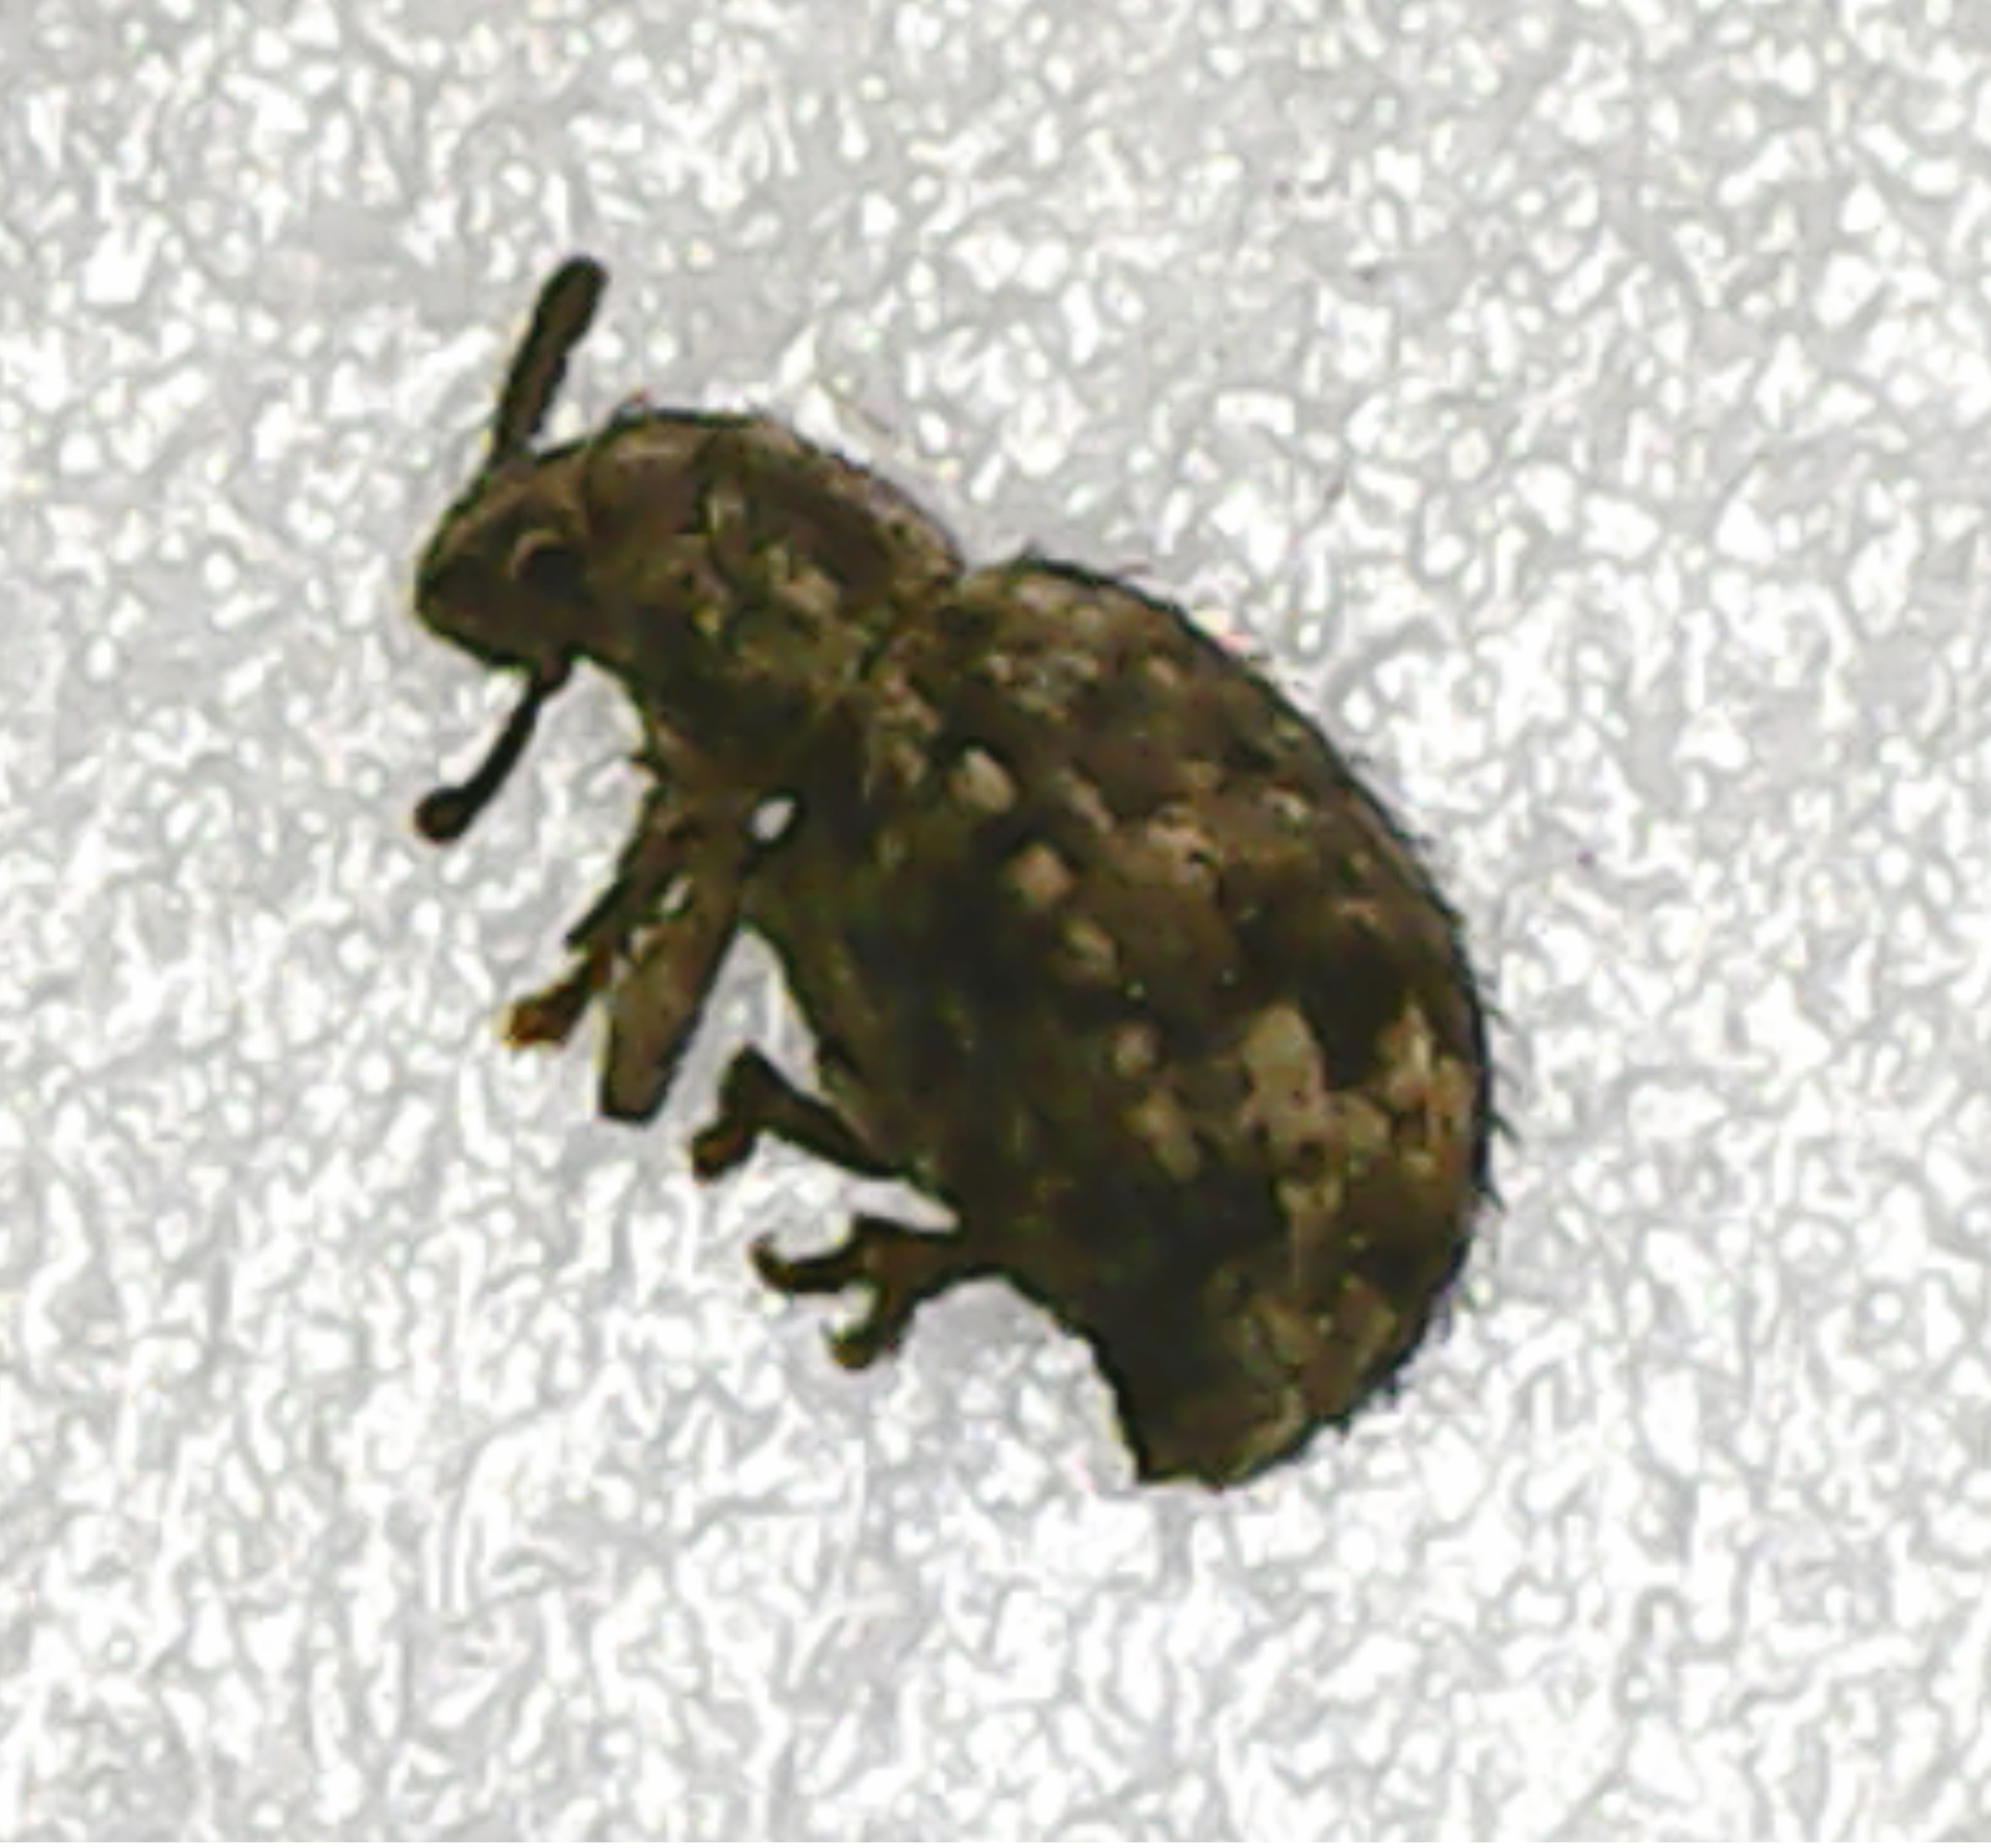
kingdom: Animalia
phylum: Arthropoda
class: Insecta
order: Coleoptera
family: Curculionidae
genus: Myosides
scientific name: Myosides seriehispidus
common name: Broadnosed weevil
